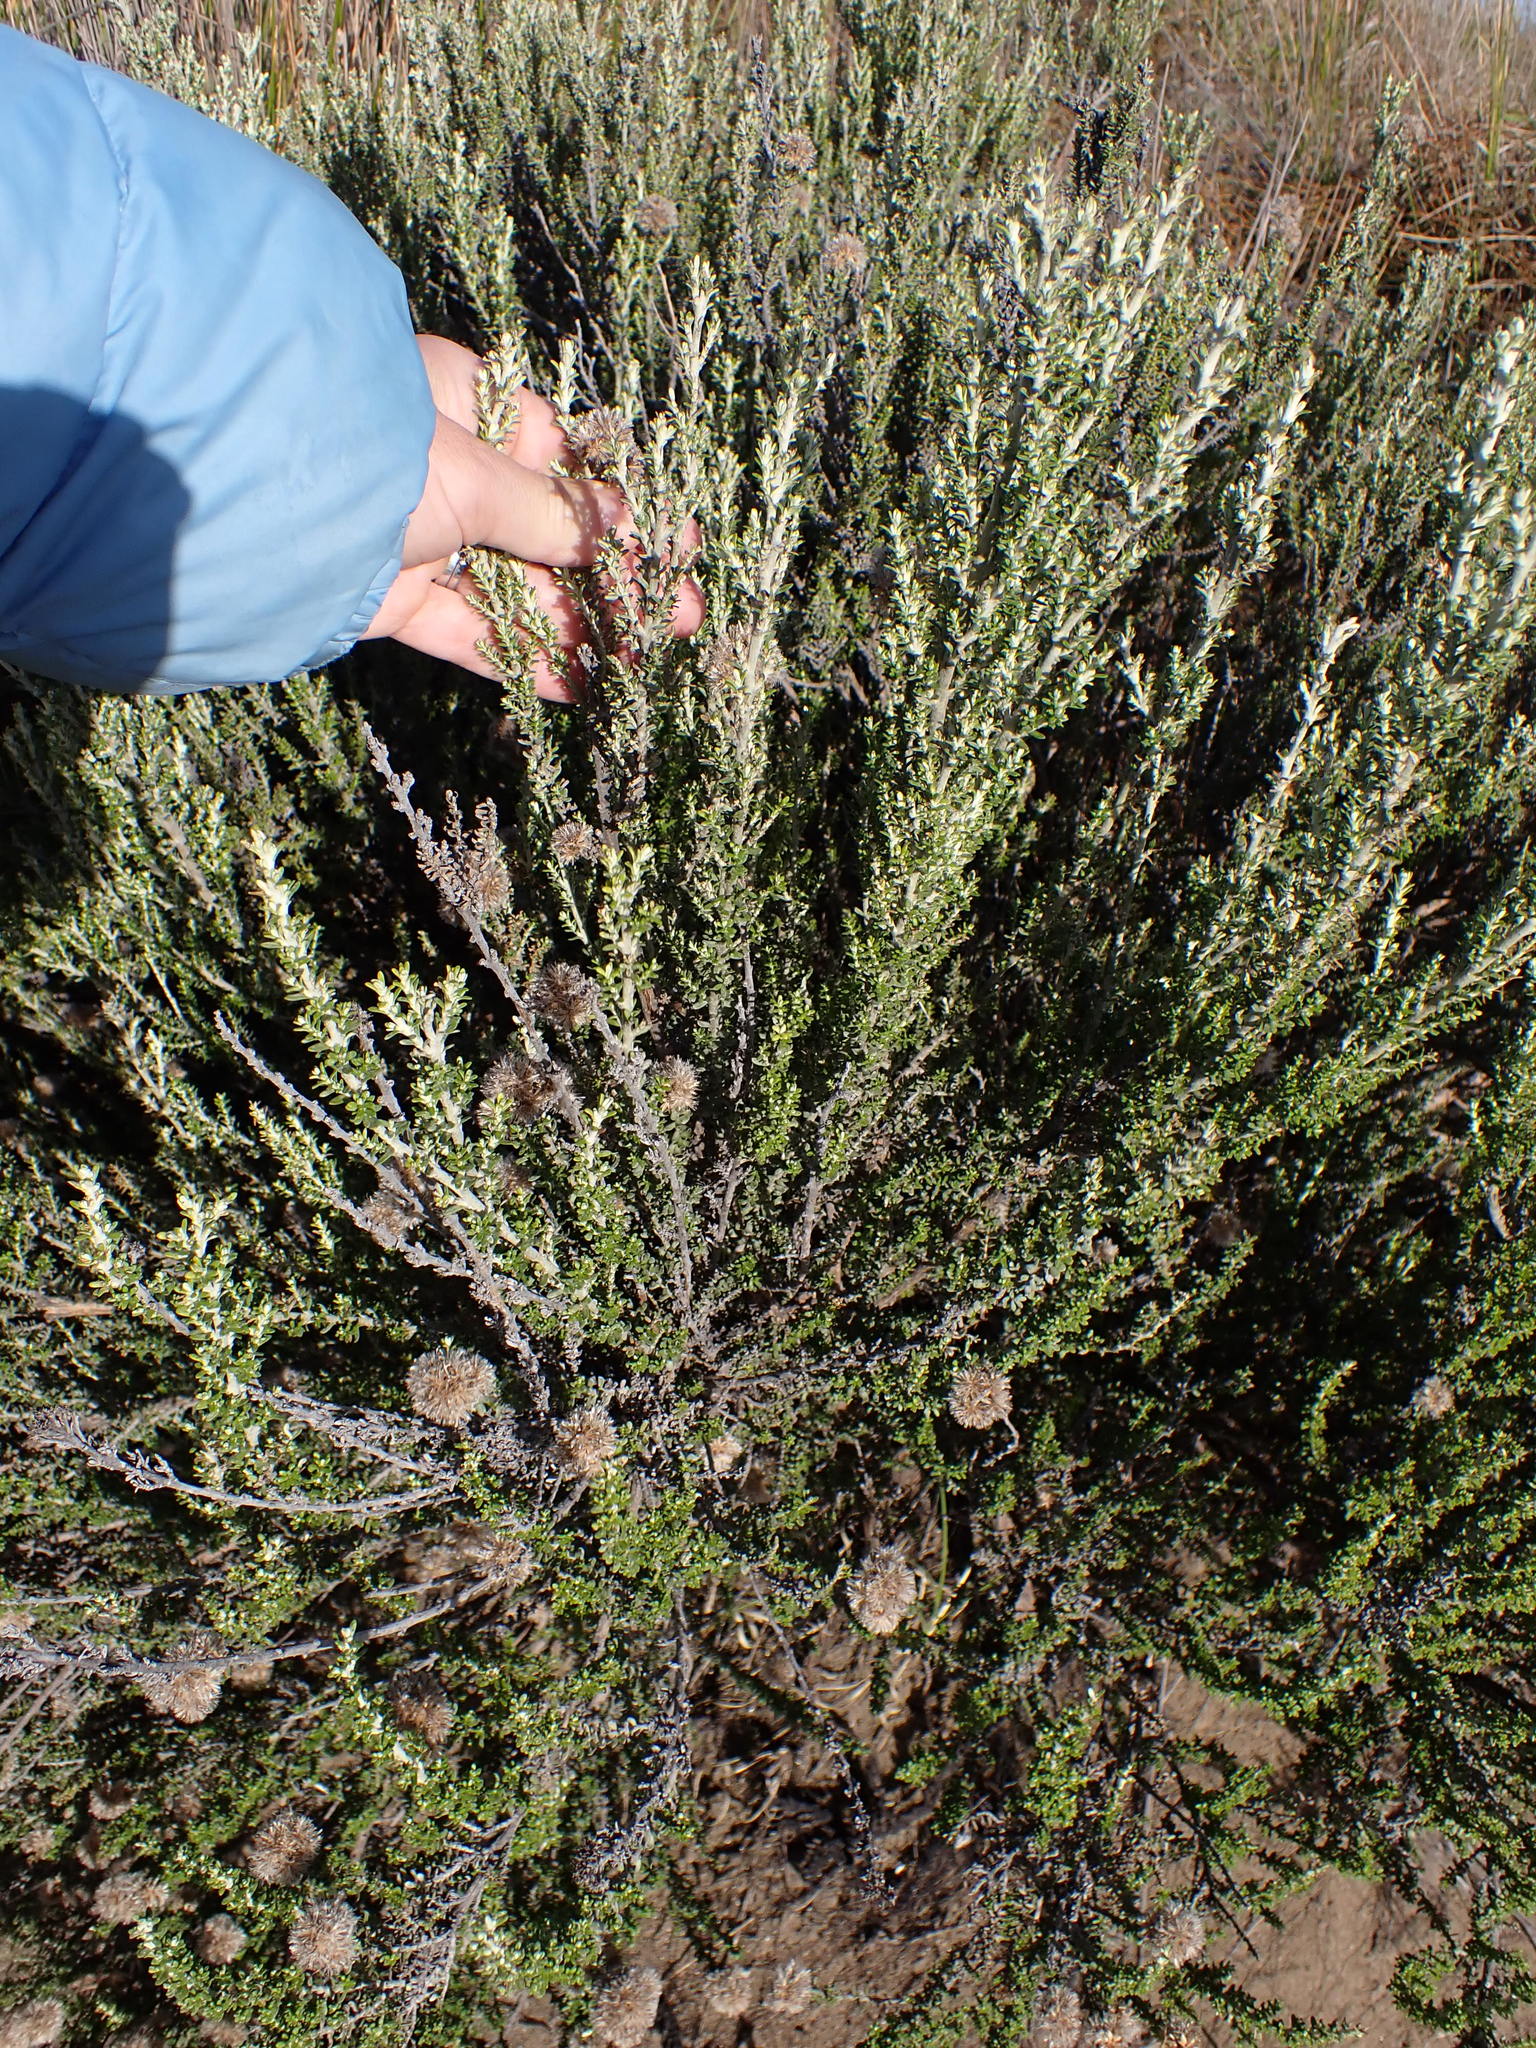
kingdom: Plantae
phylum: Tracheophyta
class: Magnoliopsida
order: Asterales
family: Asteraceae
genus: Ozothamnus
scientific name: Ozothamnus leptophyllus
